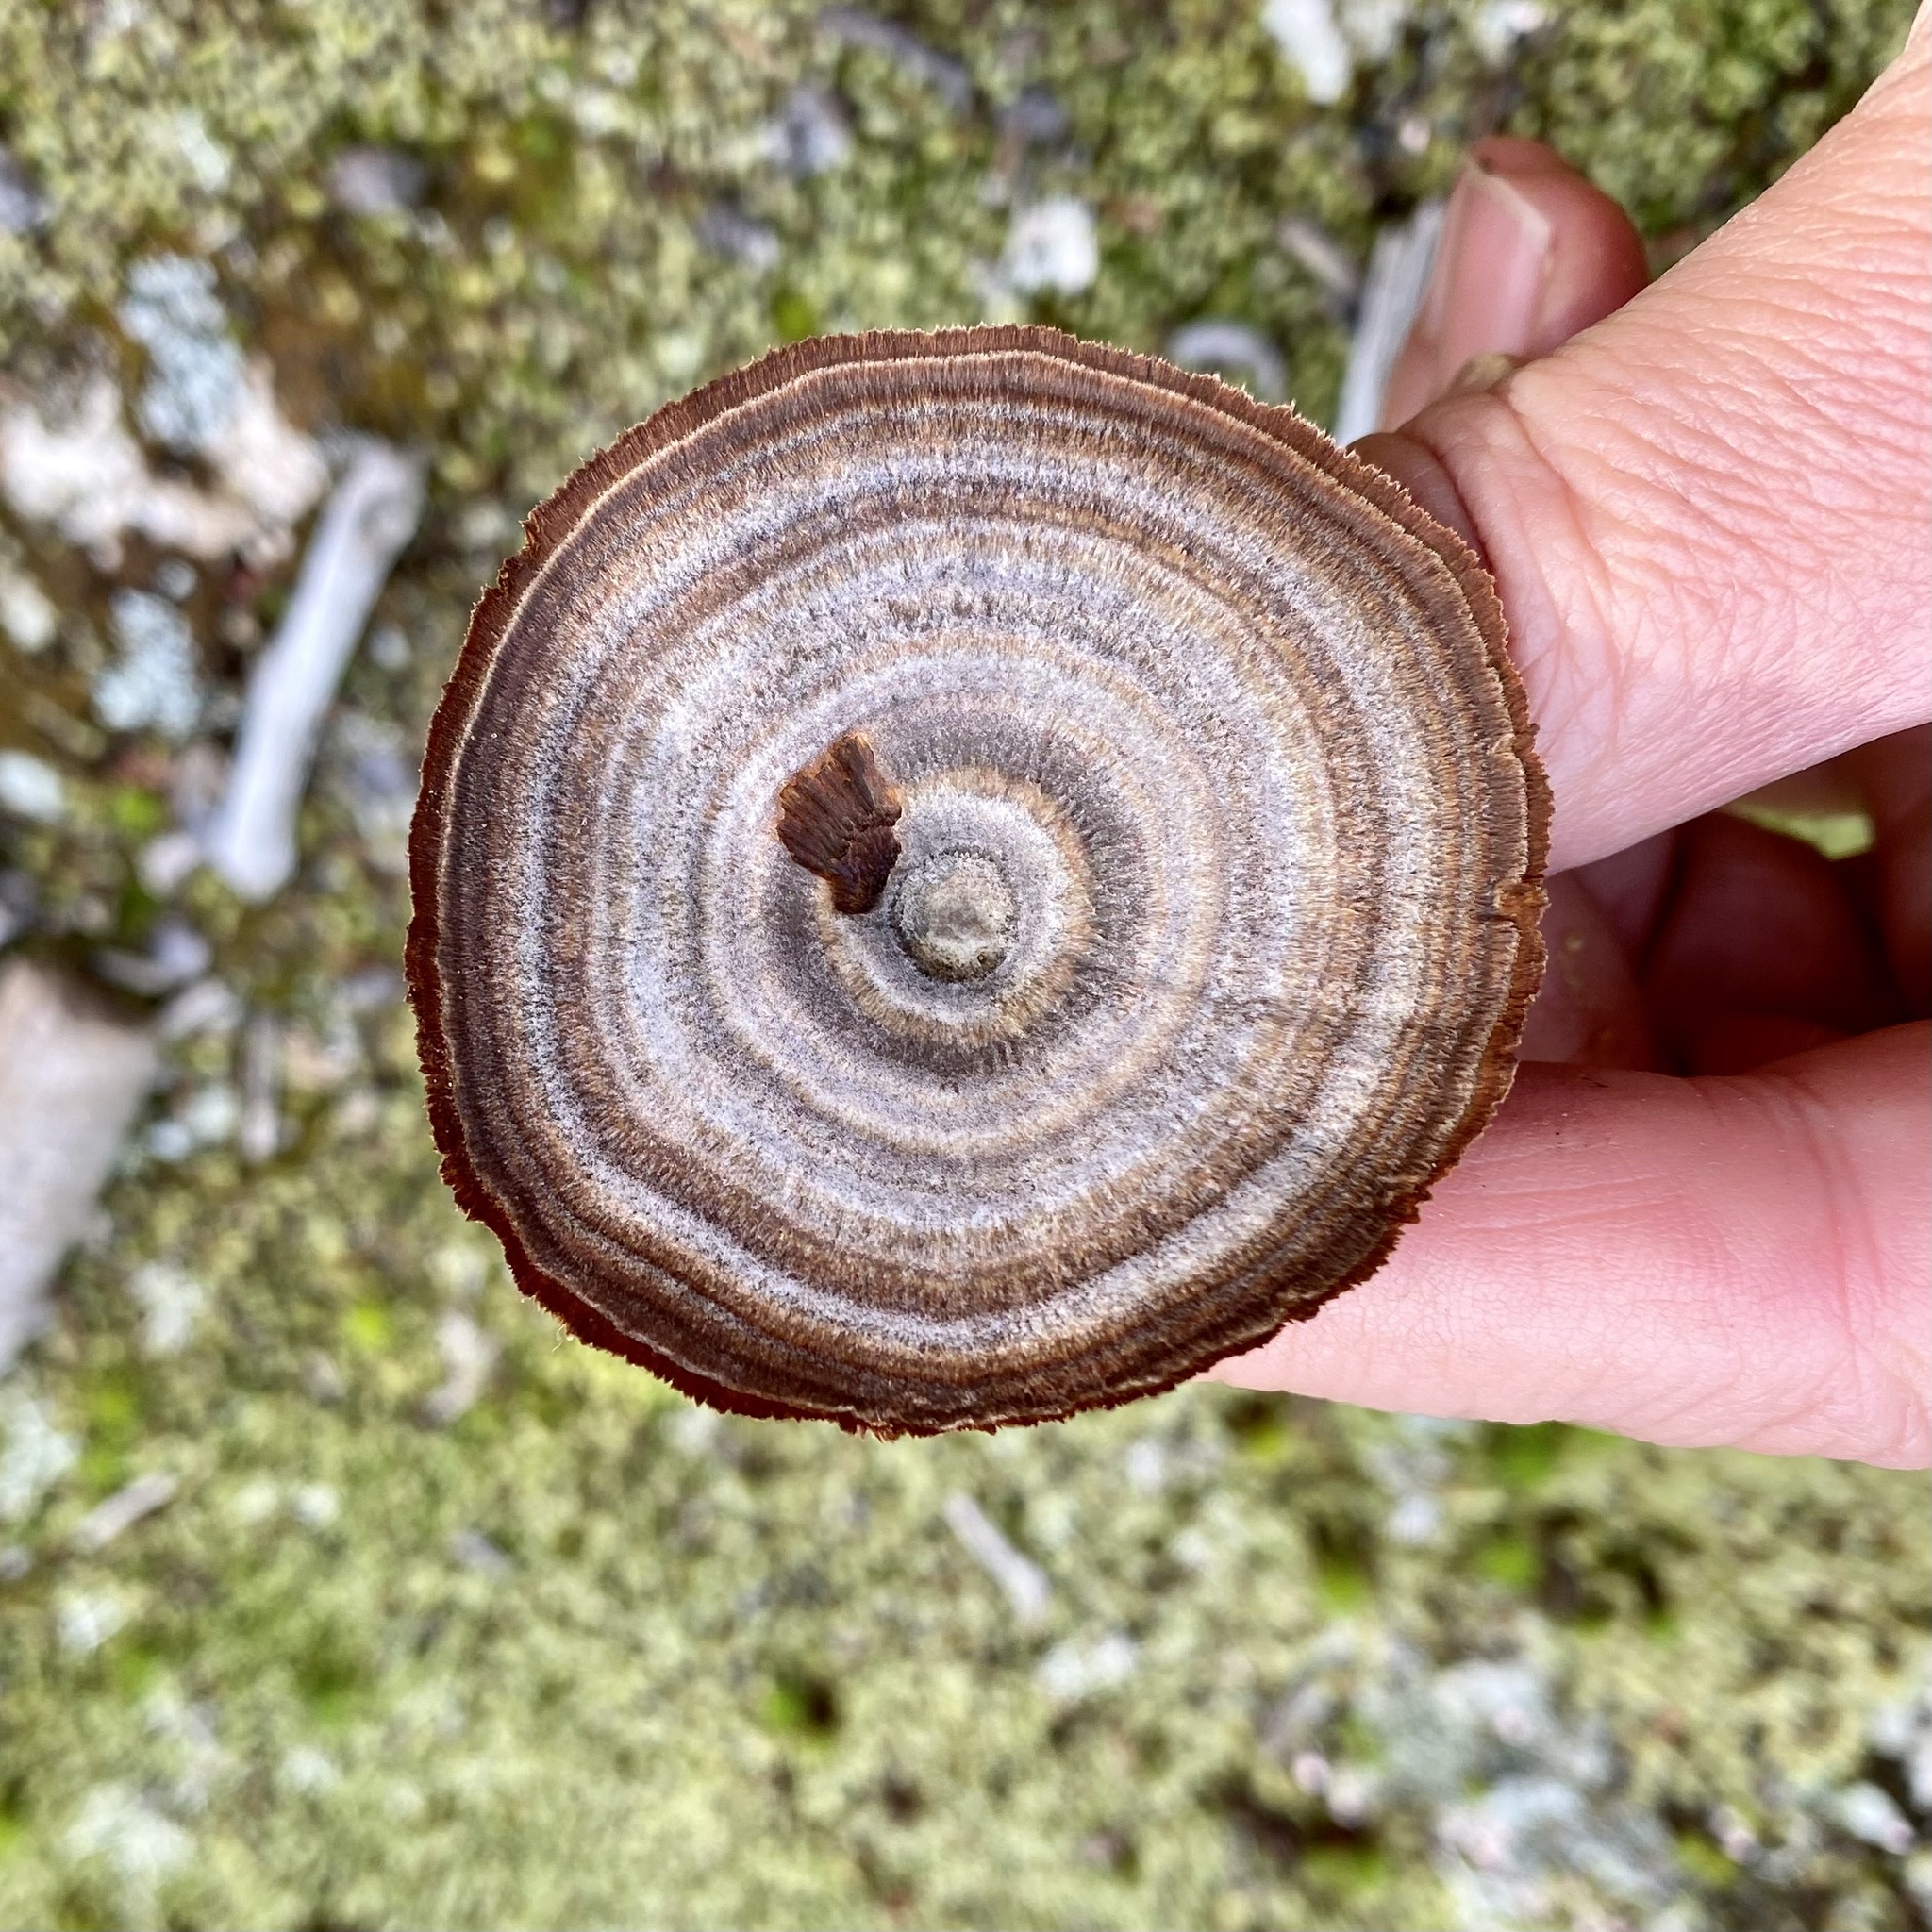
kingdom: Fungi
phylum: Basidiomycota
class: Agaricomycetes
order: Hymenochaetales
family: Hymenochaetaceae
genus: Coltricia
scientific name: Coltricia perennis
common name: Tiger's eye
